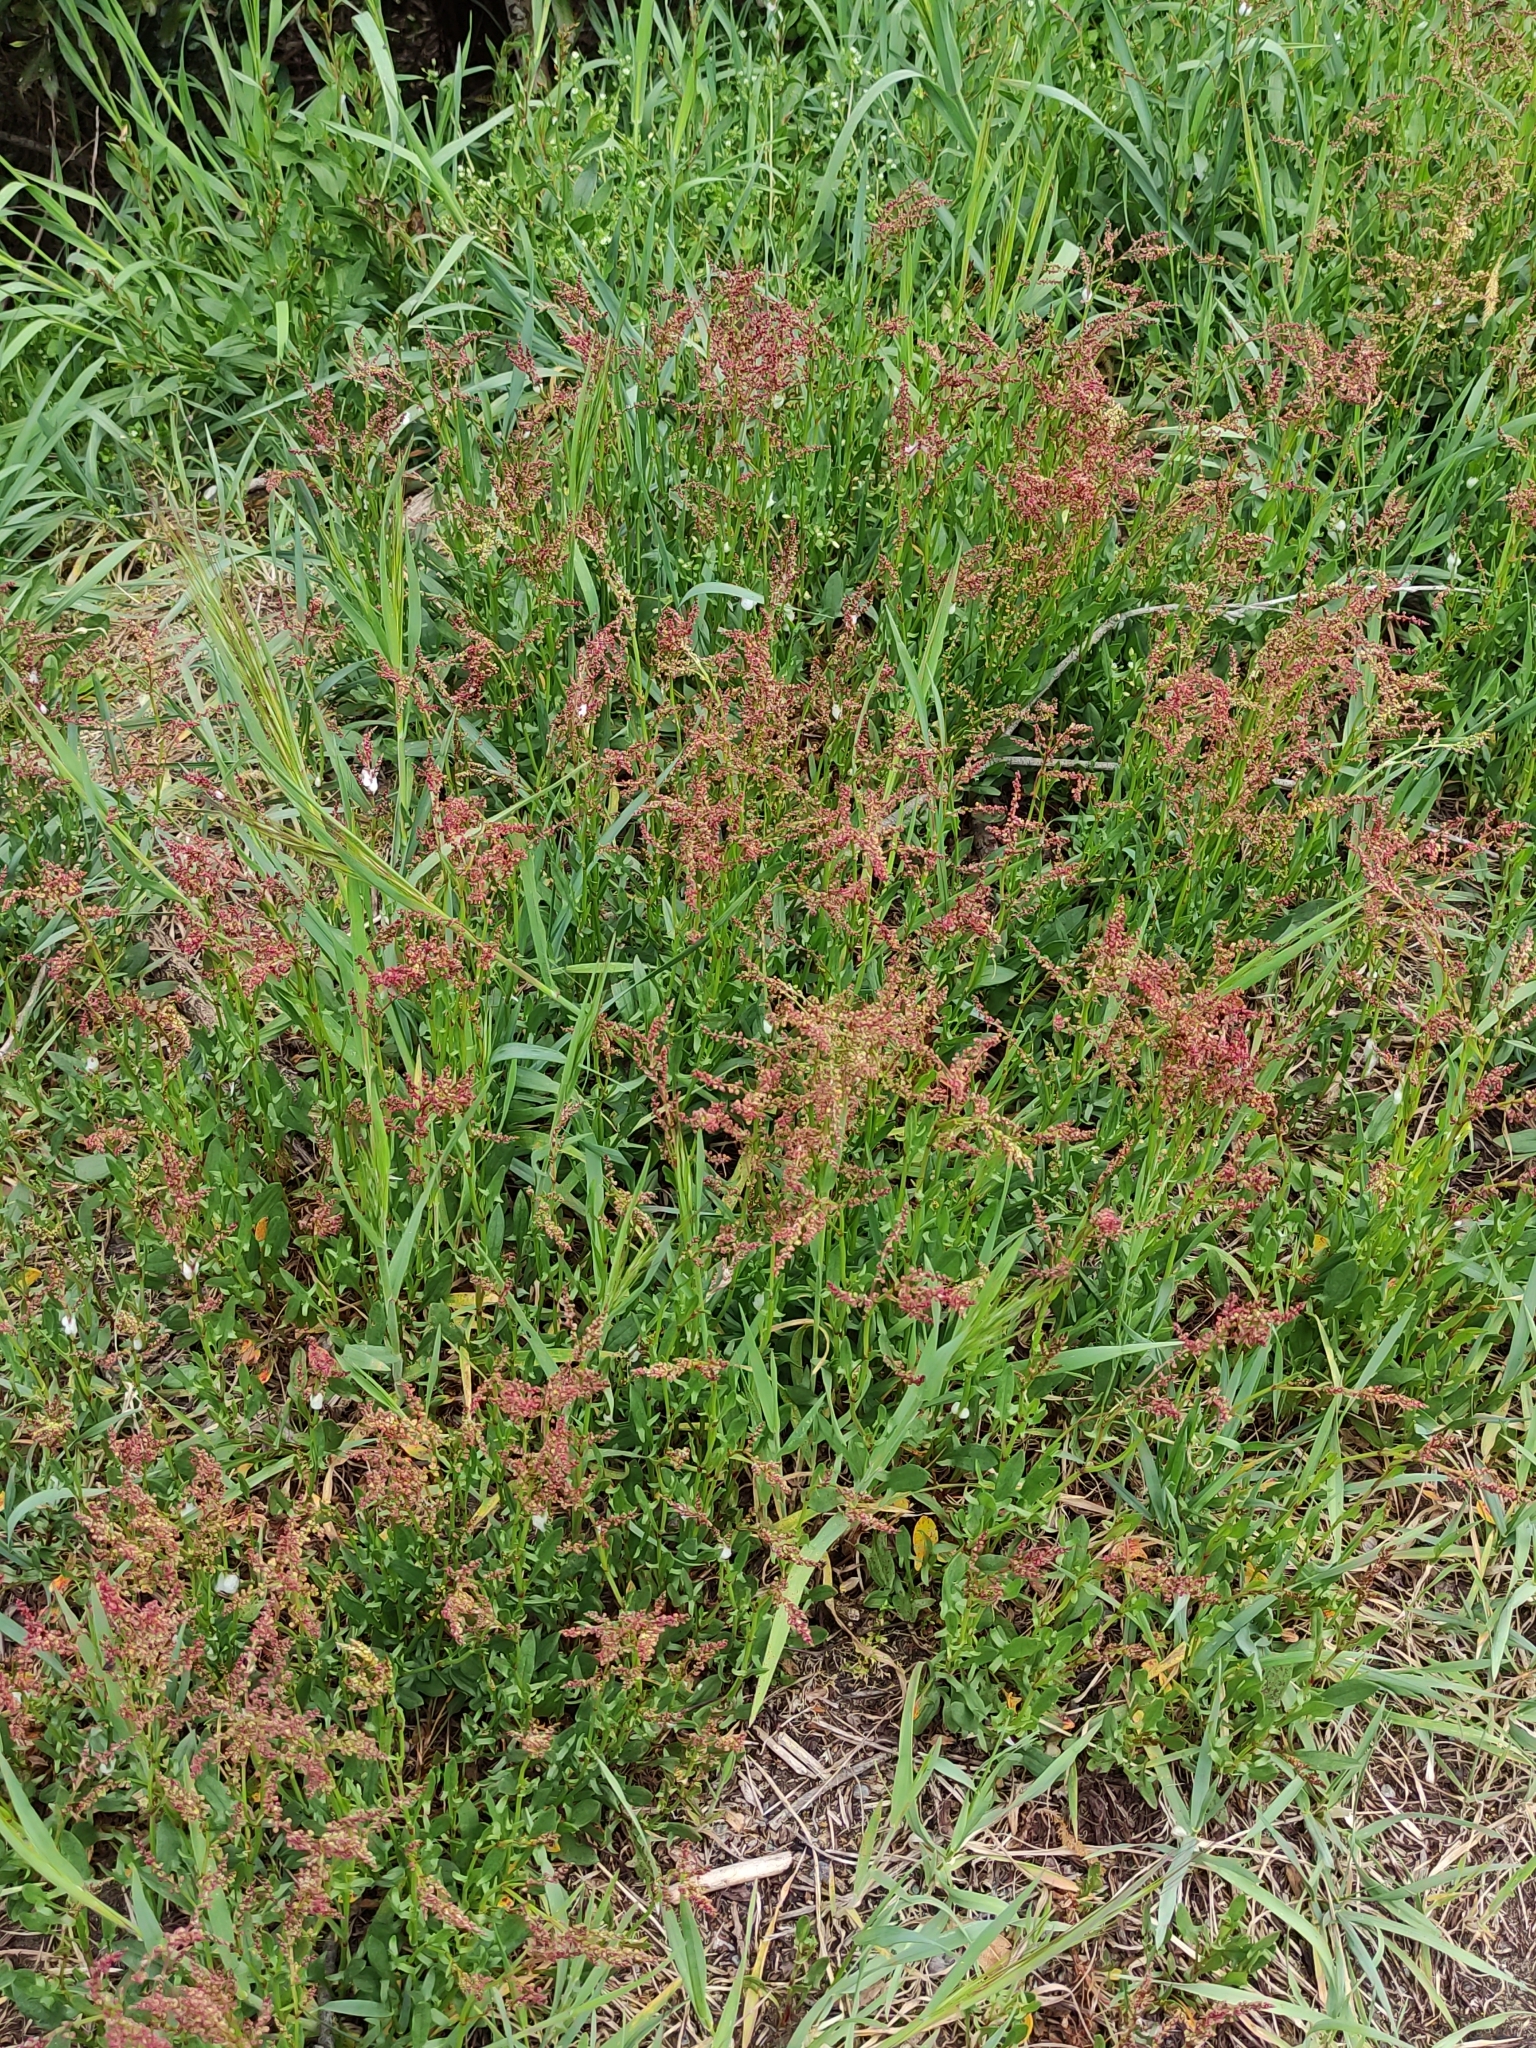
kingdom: Plantae
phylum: Tracheophyta
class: Magnoliopsida
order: Caryophyllales
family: Polygonaceae
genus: Rumex
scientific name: Rumex acetosella
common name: Common sheep sorrel
